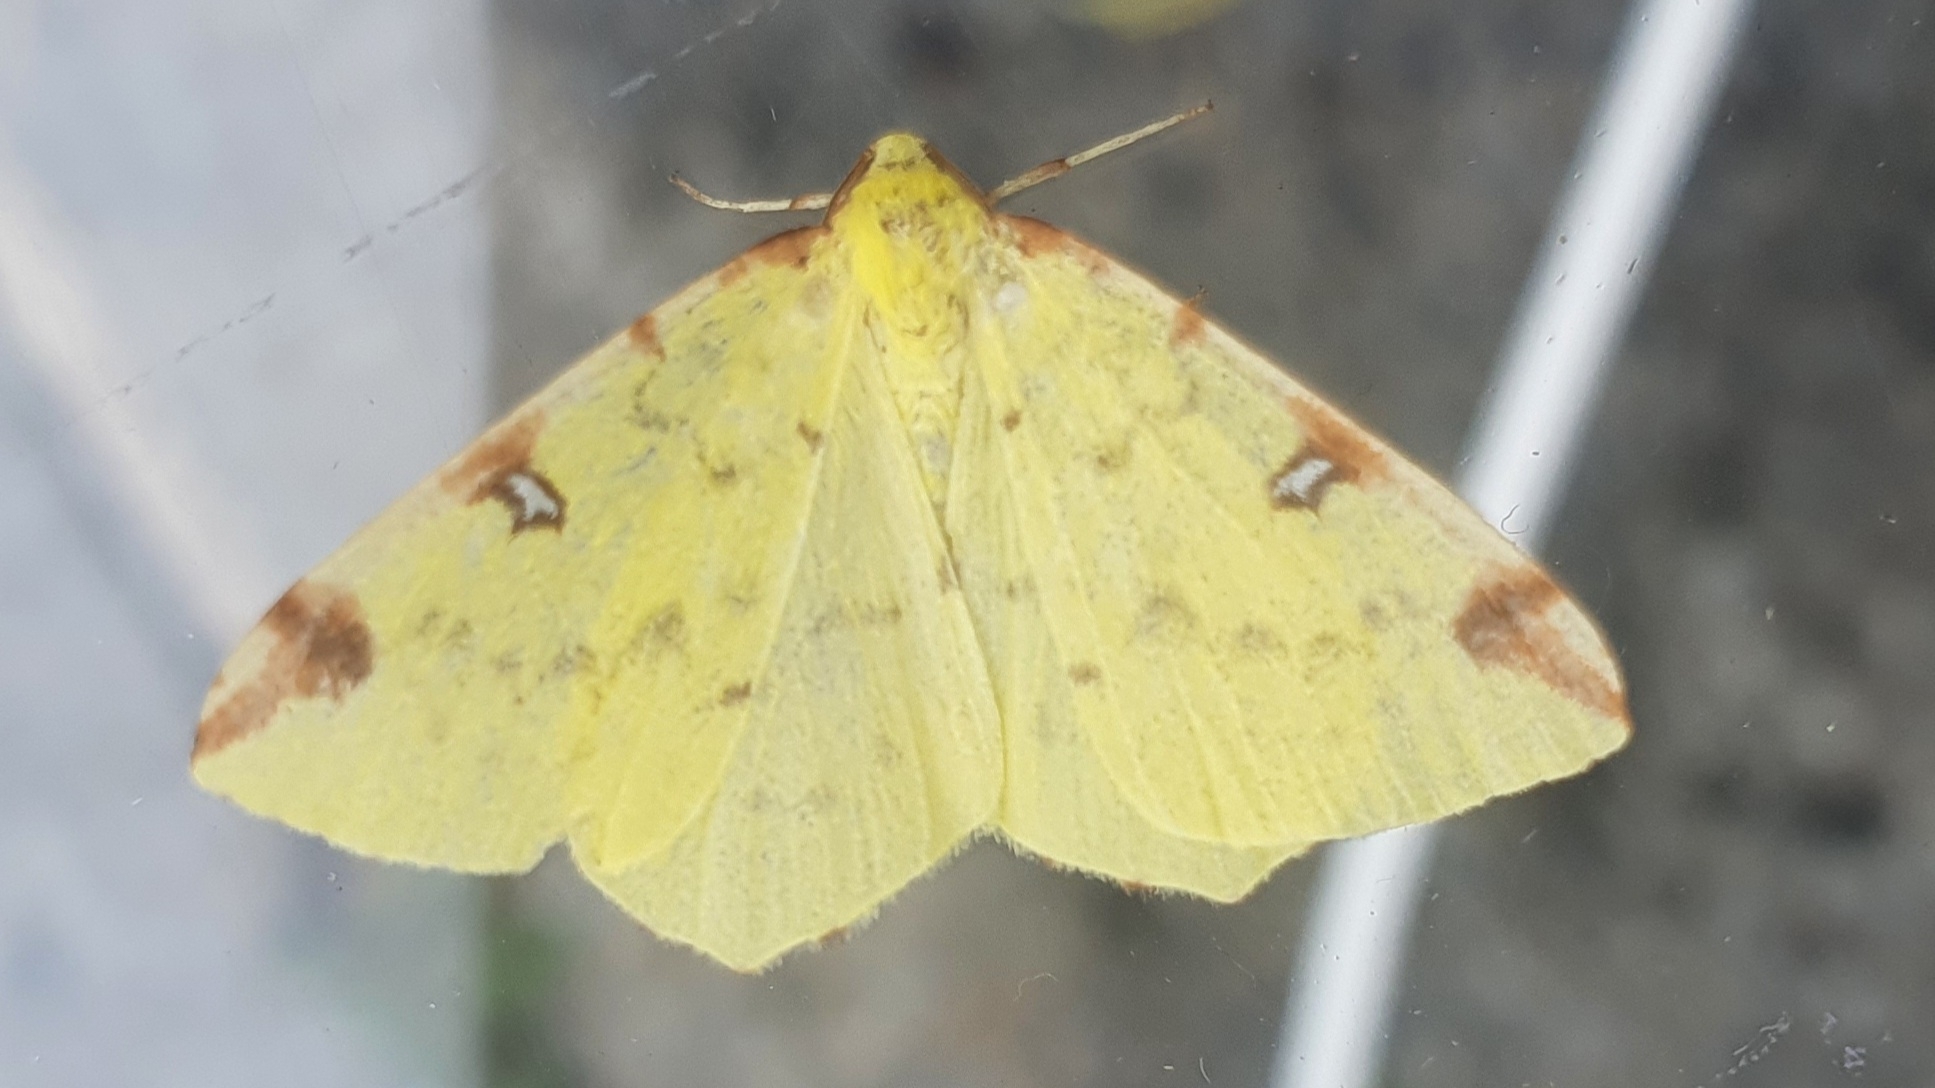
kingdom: Animalia
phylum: Arthropoda
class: Insecta
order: Lepidoptera
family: Geometridae
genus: Opisthograptis
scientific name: Opisthograptis luteolata
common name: Brimstone moth
